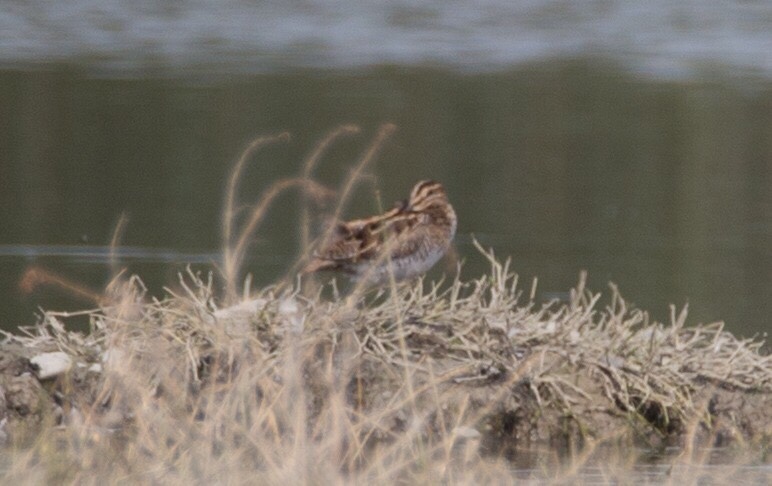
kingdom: Animalia
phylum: Chordata
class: Aves
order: Charadriiformes
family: Scolopacidae
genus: Gallinago
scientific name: Gallinago gallinago
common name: Common snipe
